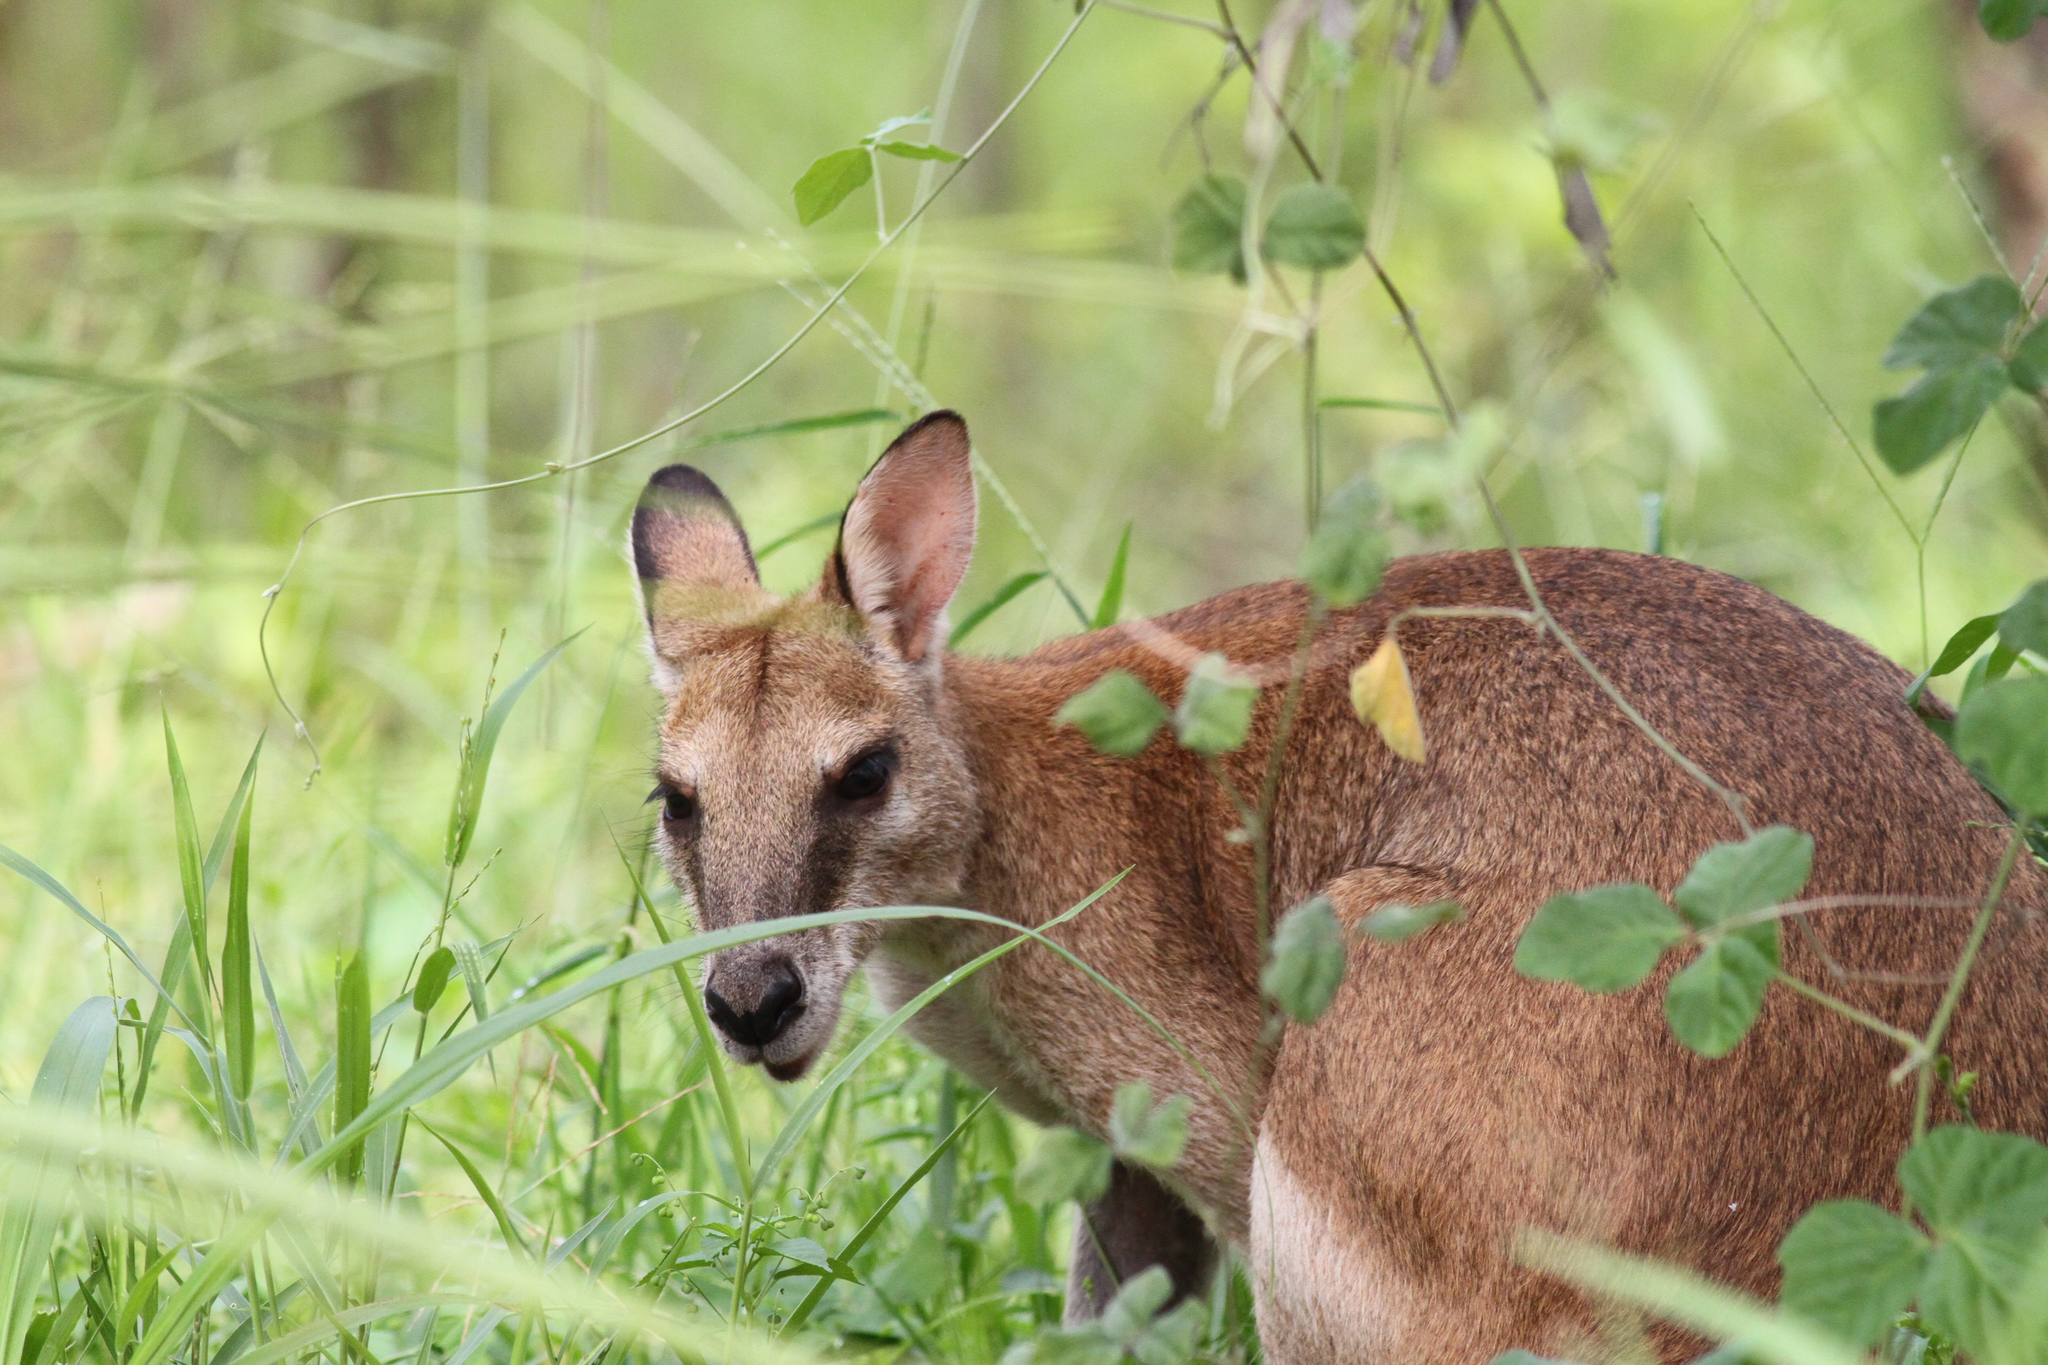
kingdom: Animalia
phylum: Chordata
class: Mammalia
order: Diprotodontia
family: Macropodidae
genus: Macropus
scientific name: Macropus agilis
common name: Agile wallaby
